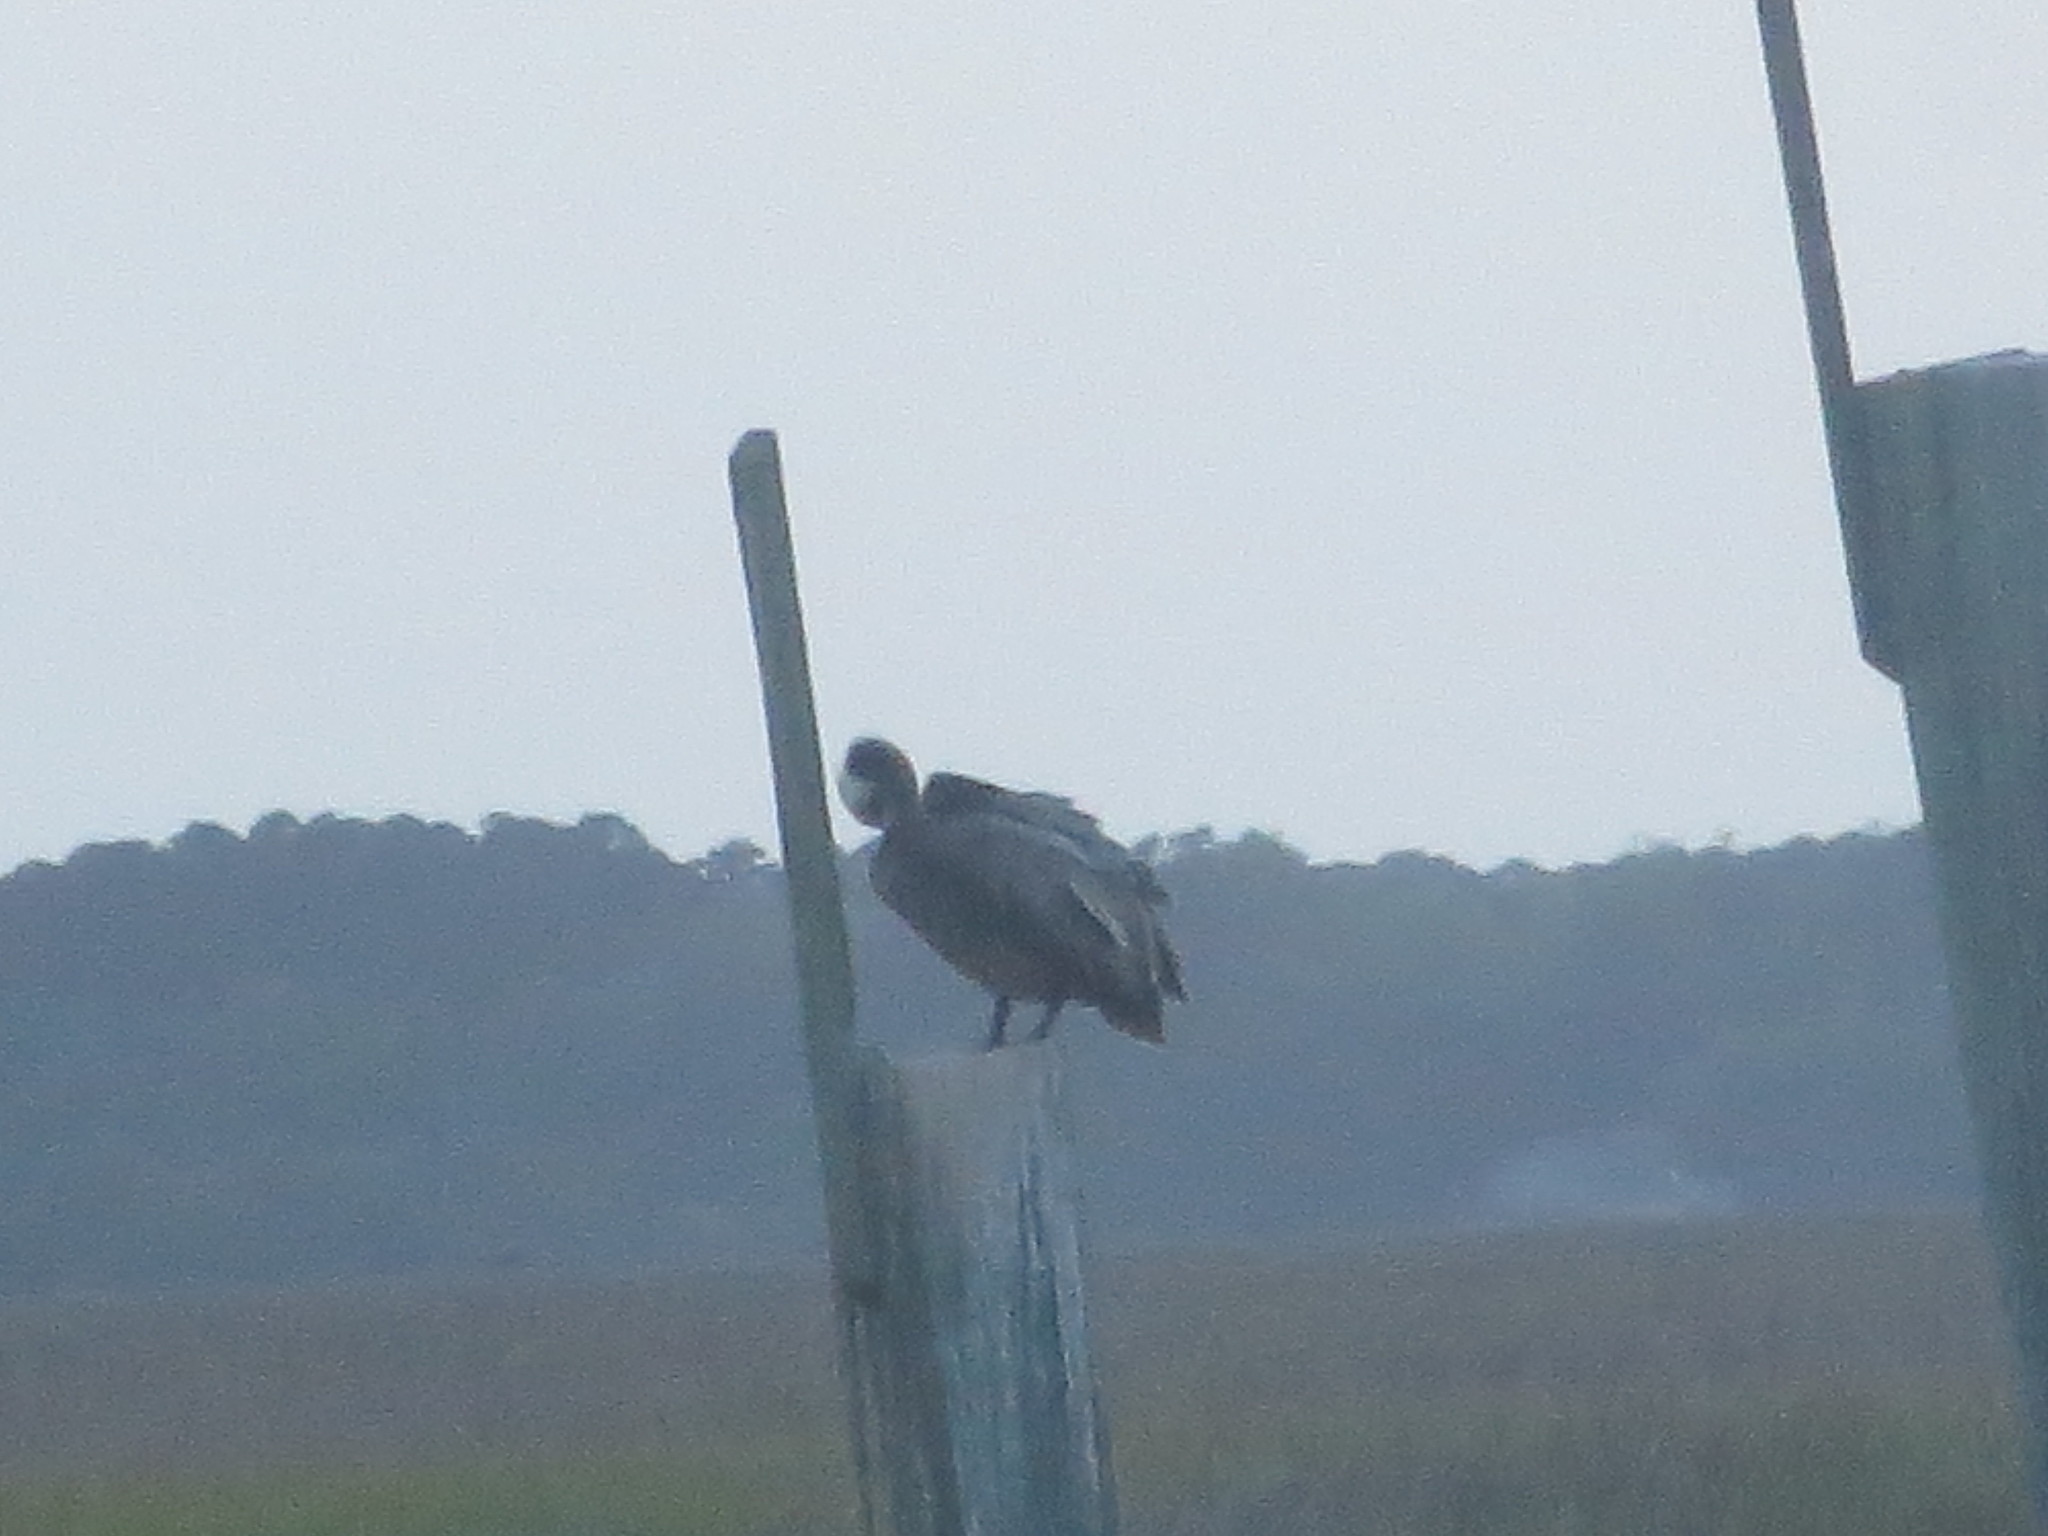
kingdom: Animalia
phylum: Chordata
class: Aves
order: Pelecaniformes
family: Pelecanidae
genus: Pelecanus
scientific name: Pelecanus occidentalis
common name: Brown pelican
